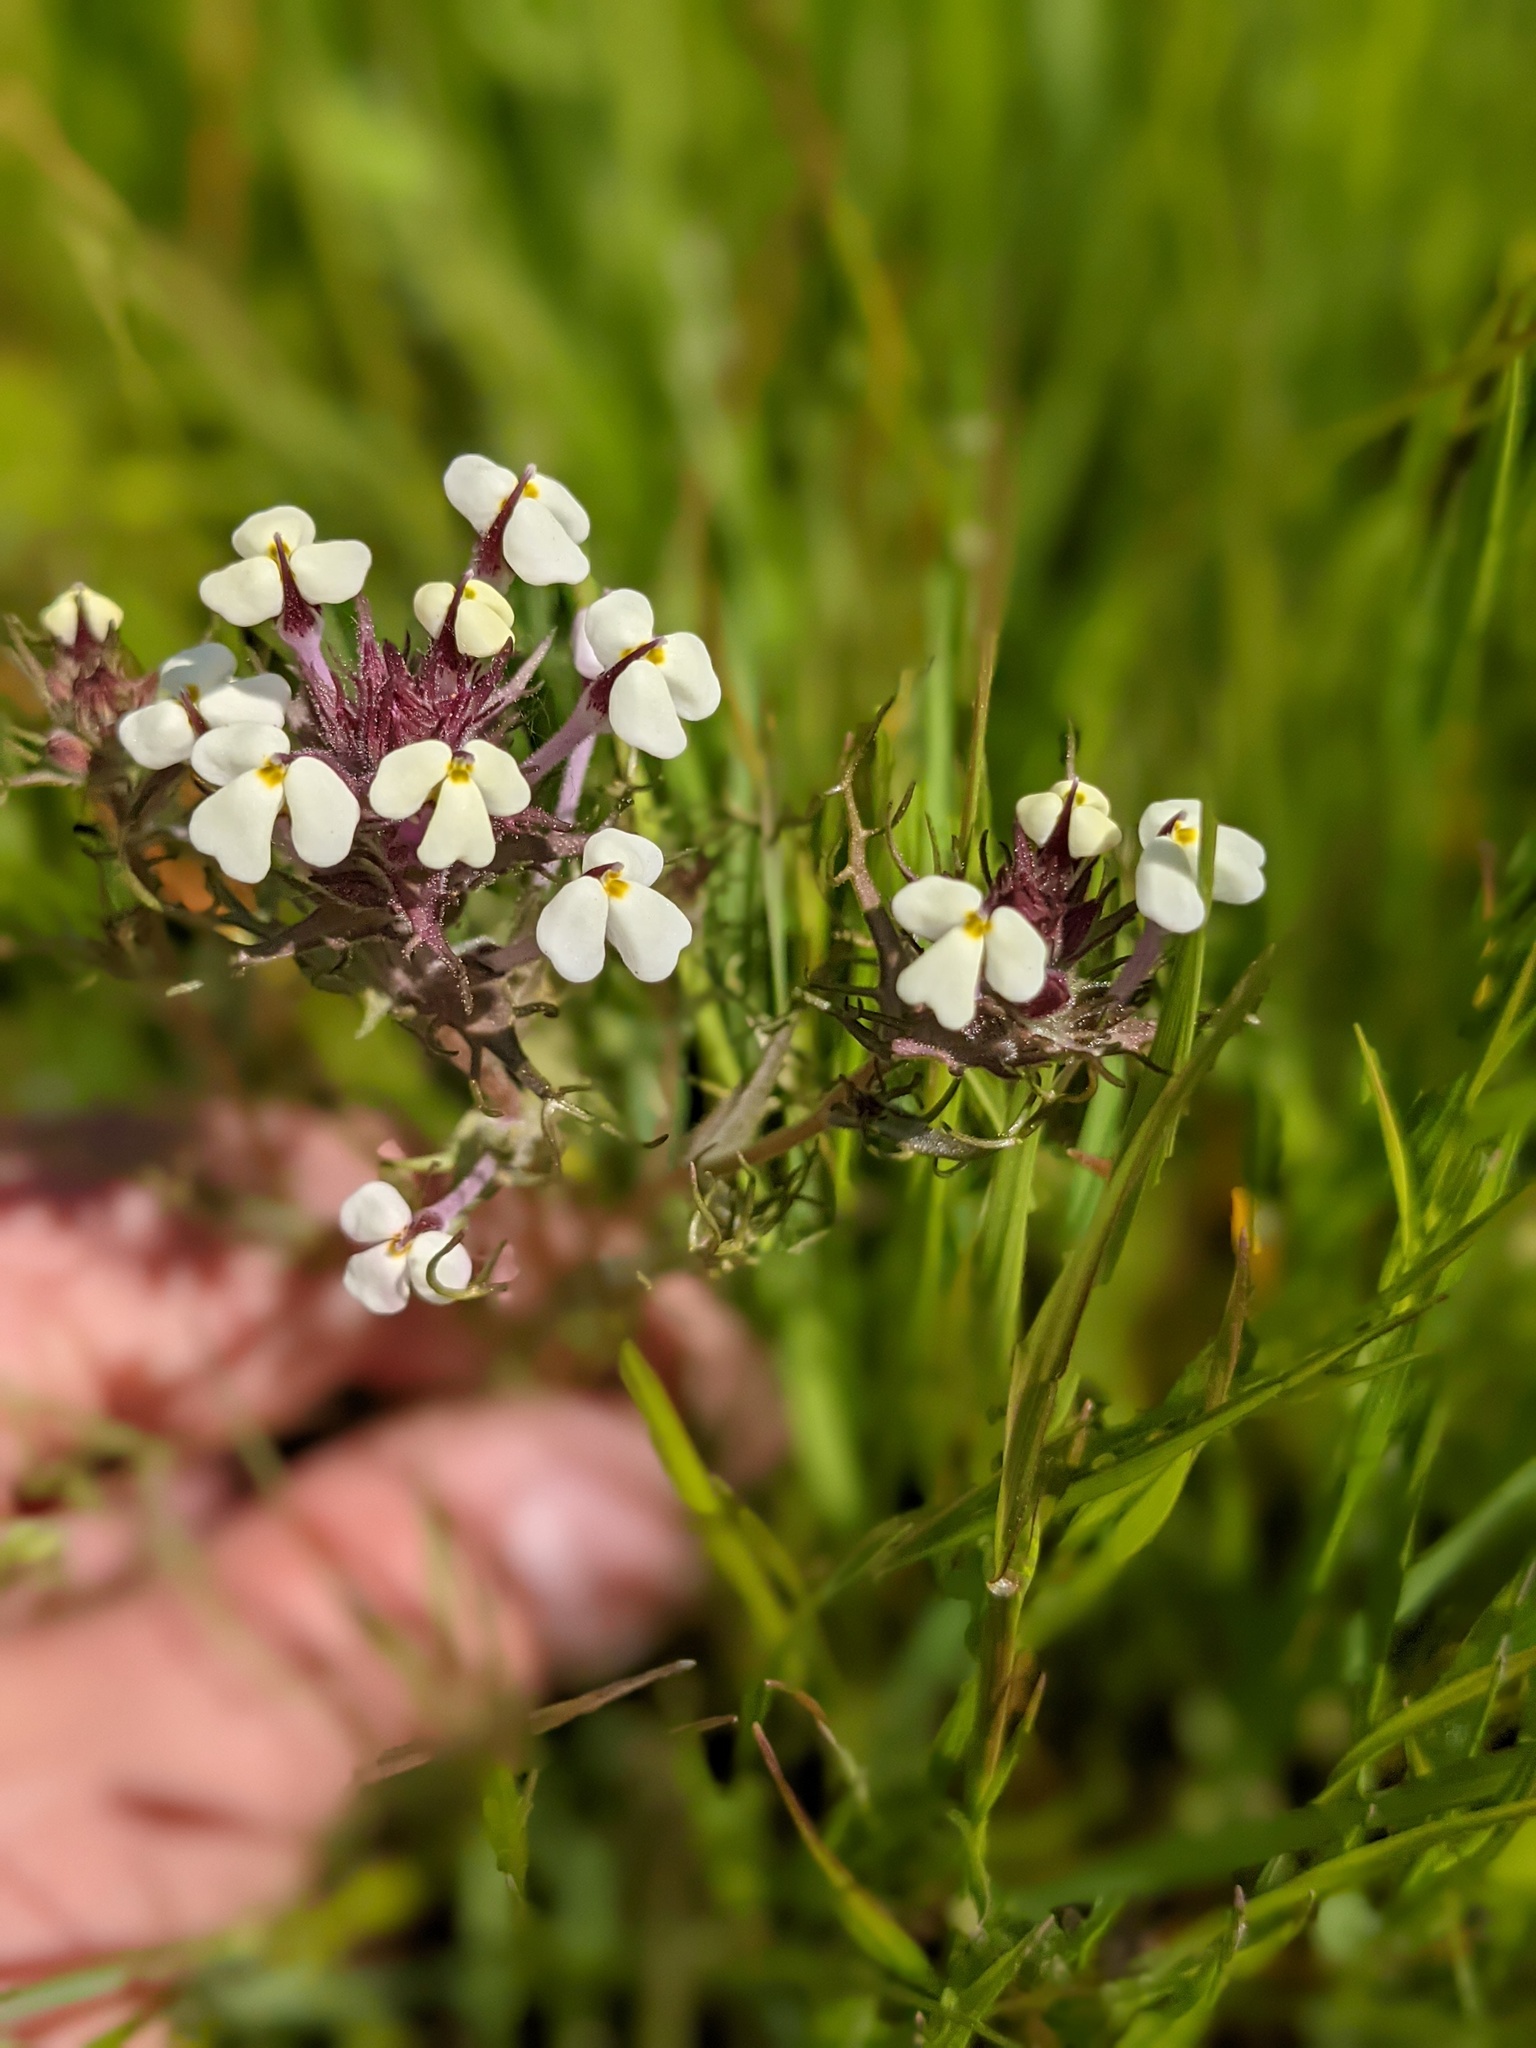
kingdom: Plantae
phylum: Tracheophyta
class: Magnoliopsida
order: Lamiales
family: Orobanchaceae
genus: Triphysaria
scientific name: Triphysaria eriantha
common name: Johnny-tuck
